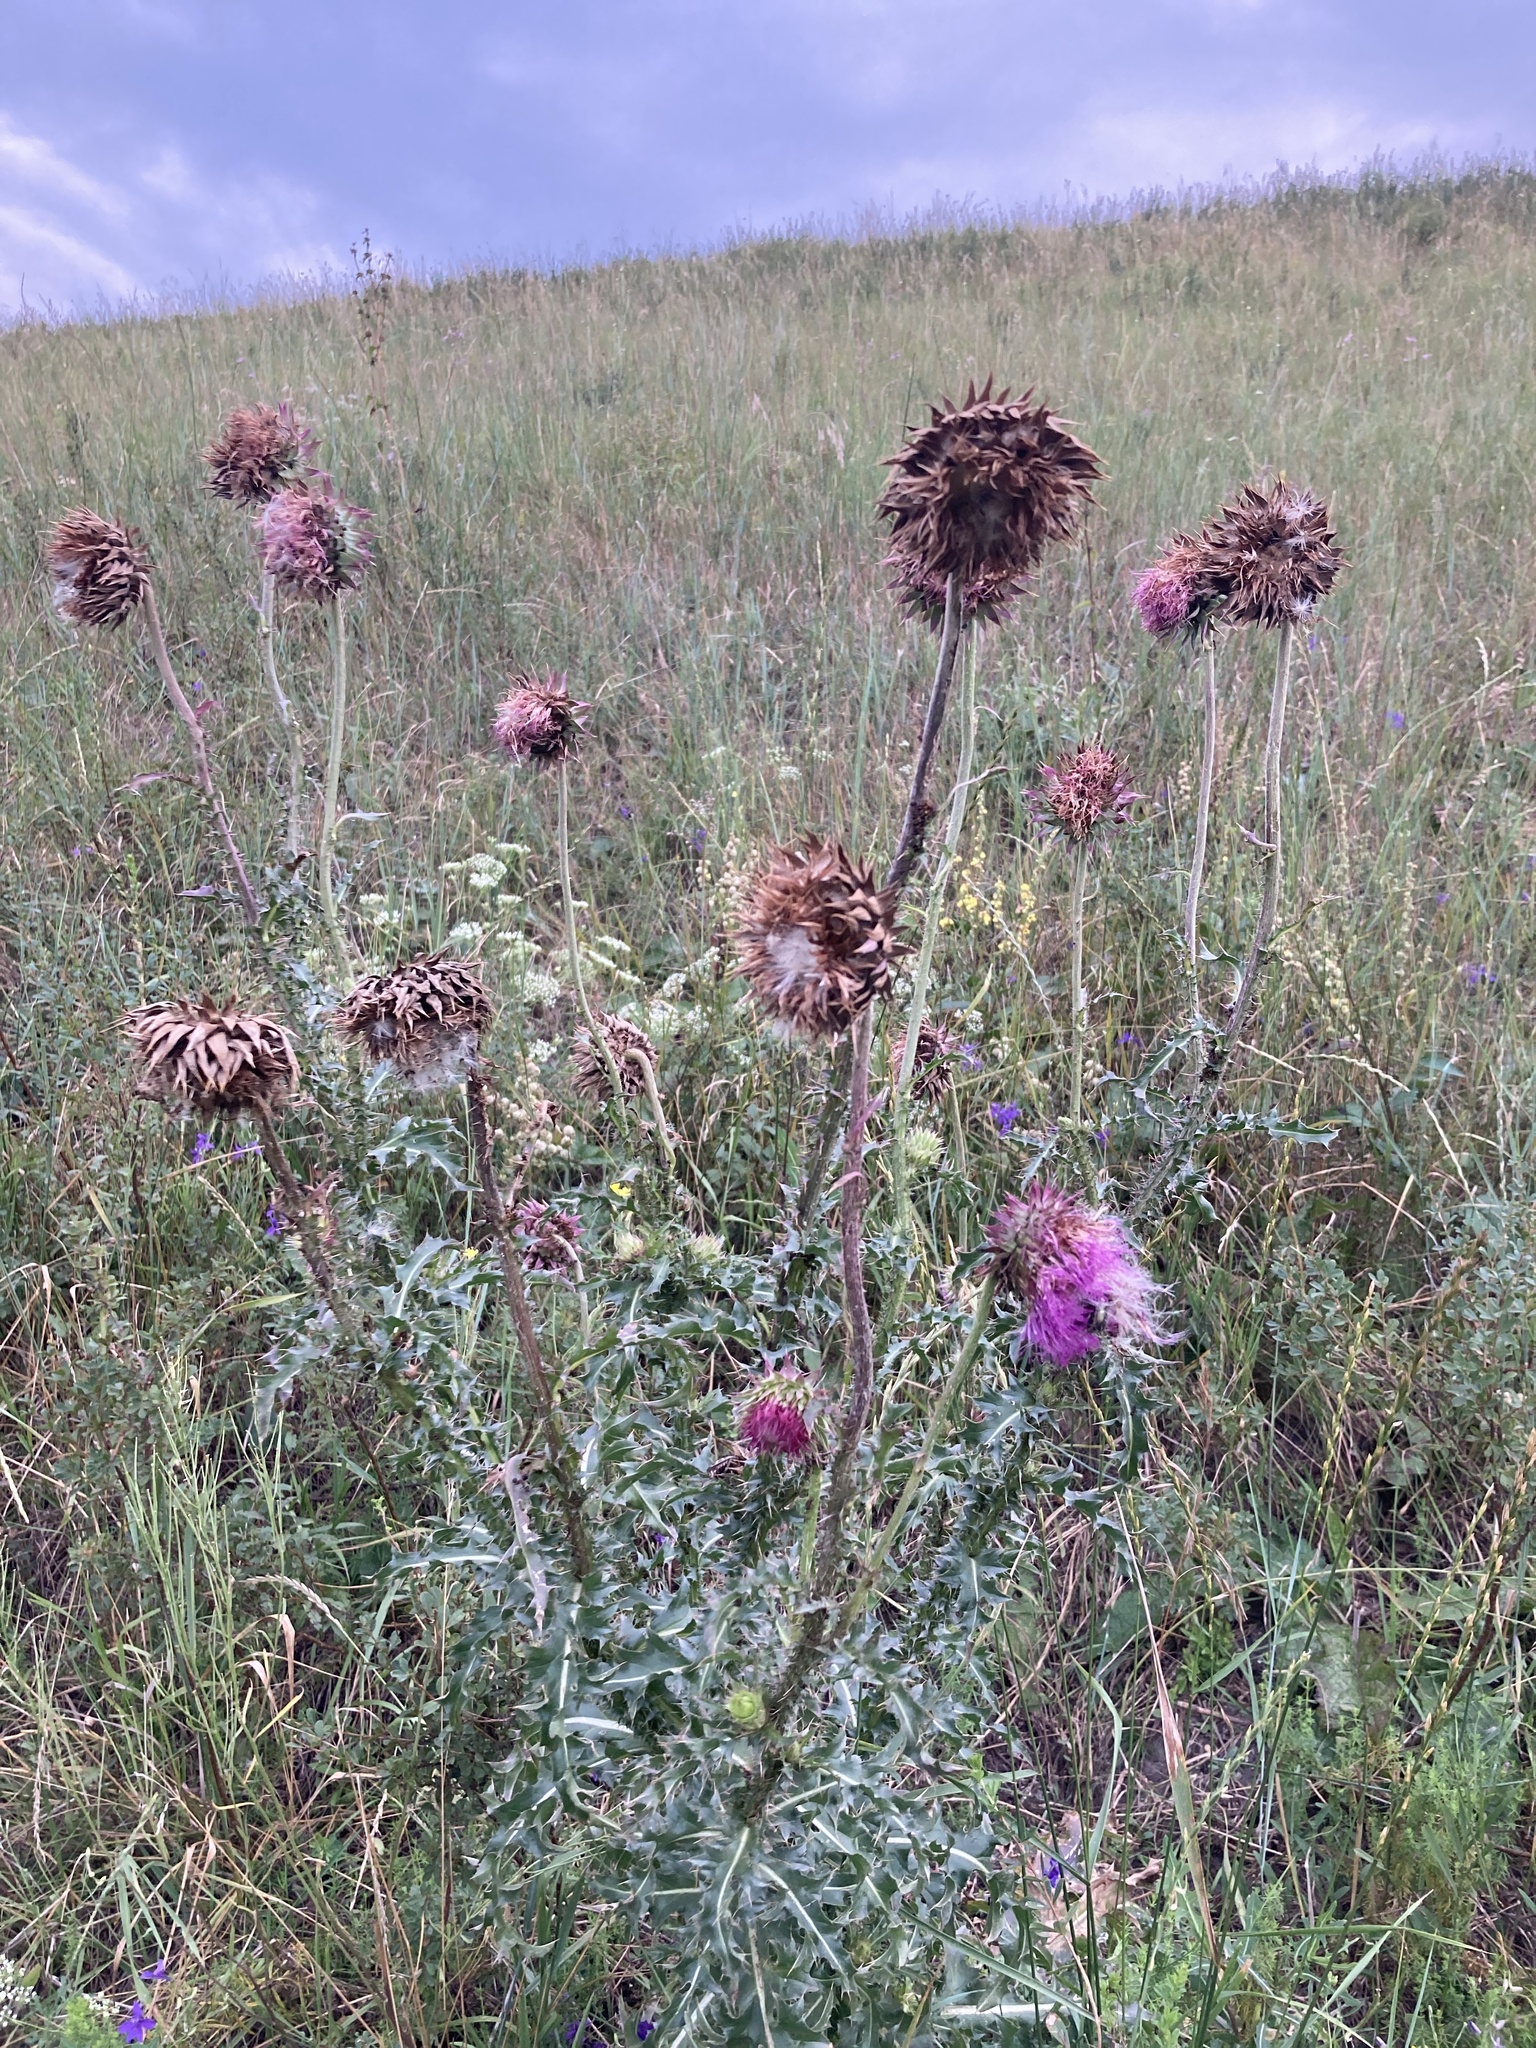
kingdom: Plantae
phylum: Tracheophyta
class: Magnoliopsida
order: Asterales
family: Asteraceae
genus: Carduus
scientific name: Carduus nutans
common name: Musk thistle
